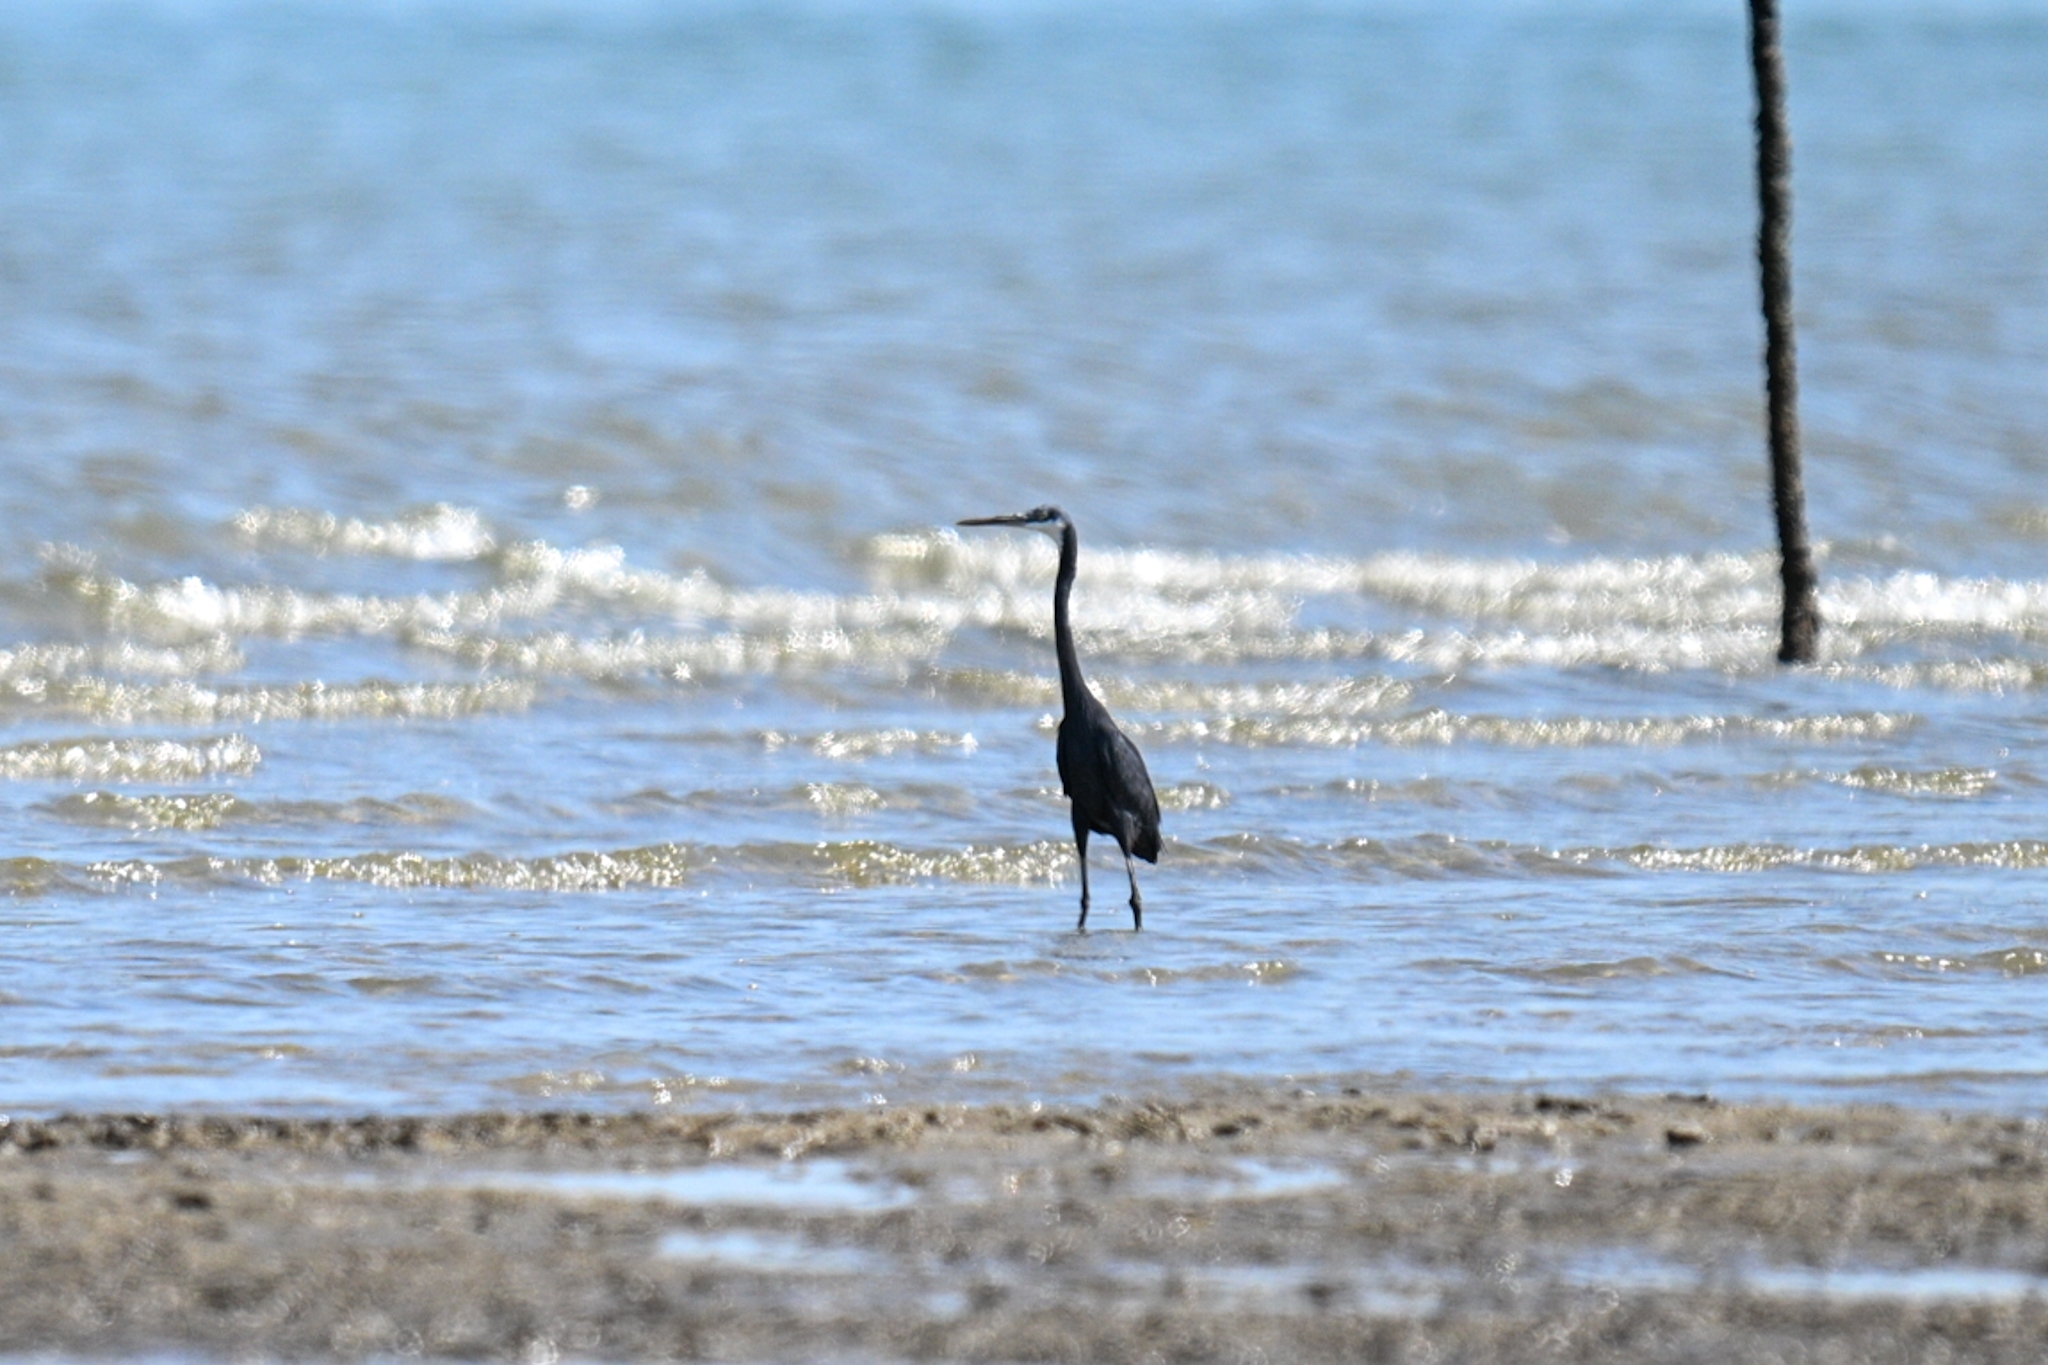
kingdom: Animalia
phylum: Chordata
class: Aves
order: Pelecaniformes
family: Ardeidae
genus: Egretta
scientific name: Egretta gularis
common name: Western reef-heron
